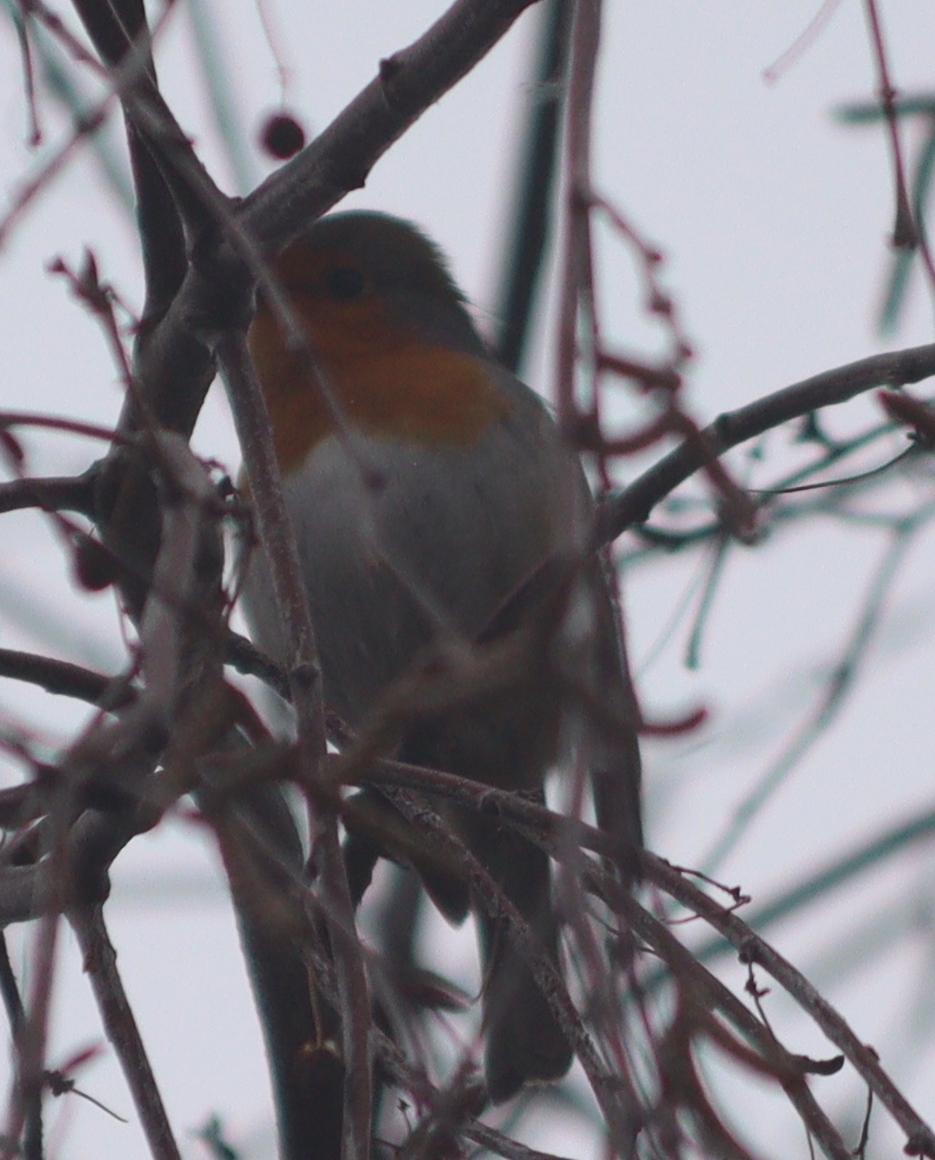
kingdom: Animalia
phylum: Chordata
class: Aves
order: Passeriformes
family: Muscicapidae
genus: Erithacus
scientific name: Erithacus rubecula
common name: European robin
